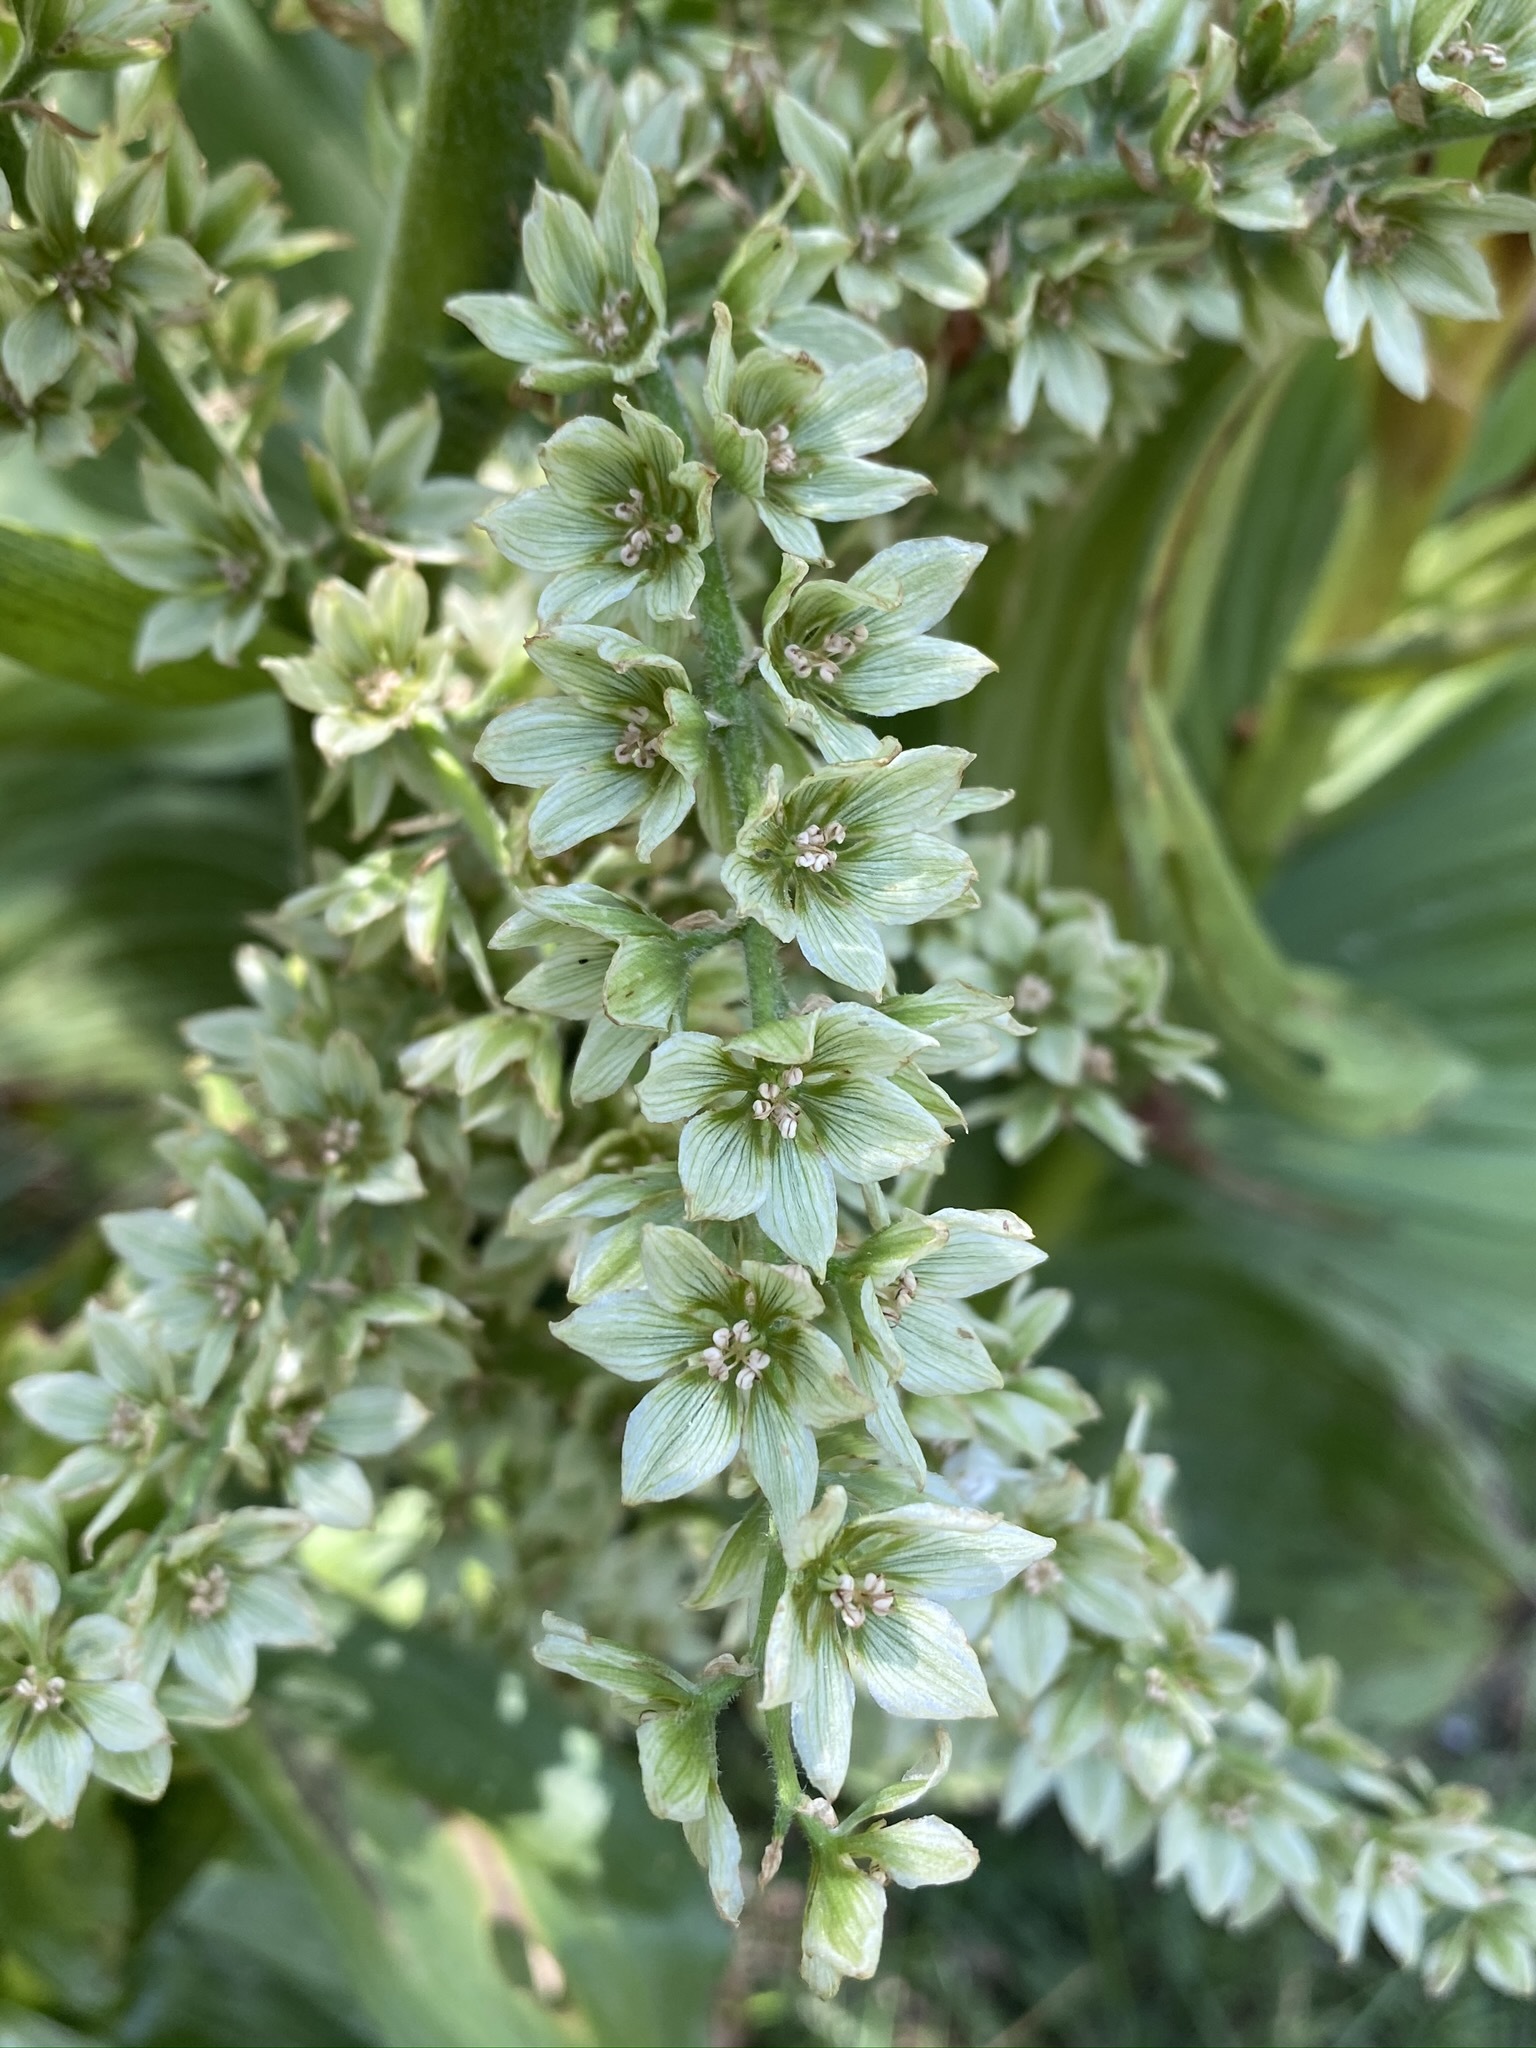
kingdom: Plantae
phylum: Tracheophyta
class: Liliopsida
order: Liliales
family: Melanthiaceae
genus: Veratrum
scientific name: Veratrum californicum
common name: California veratrum
